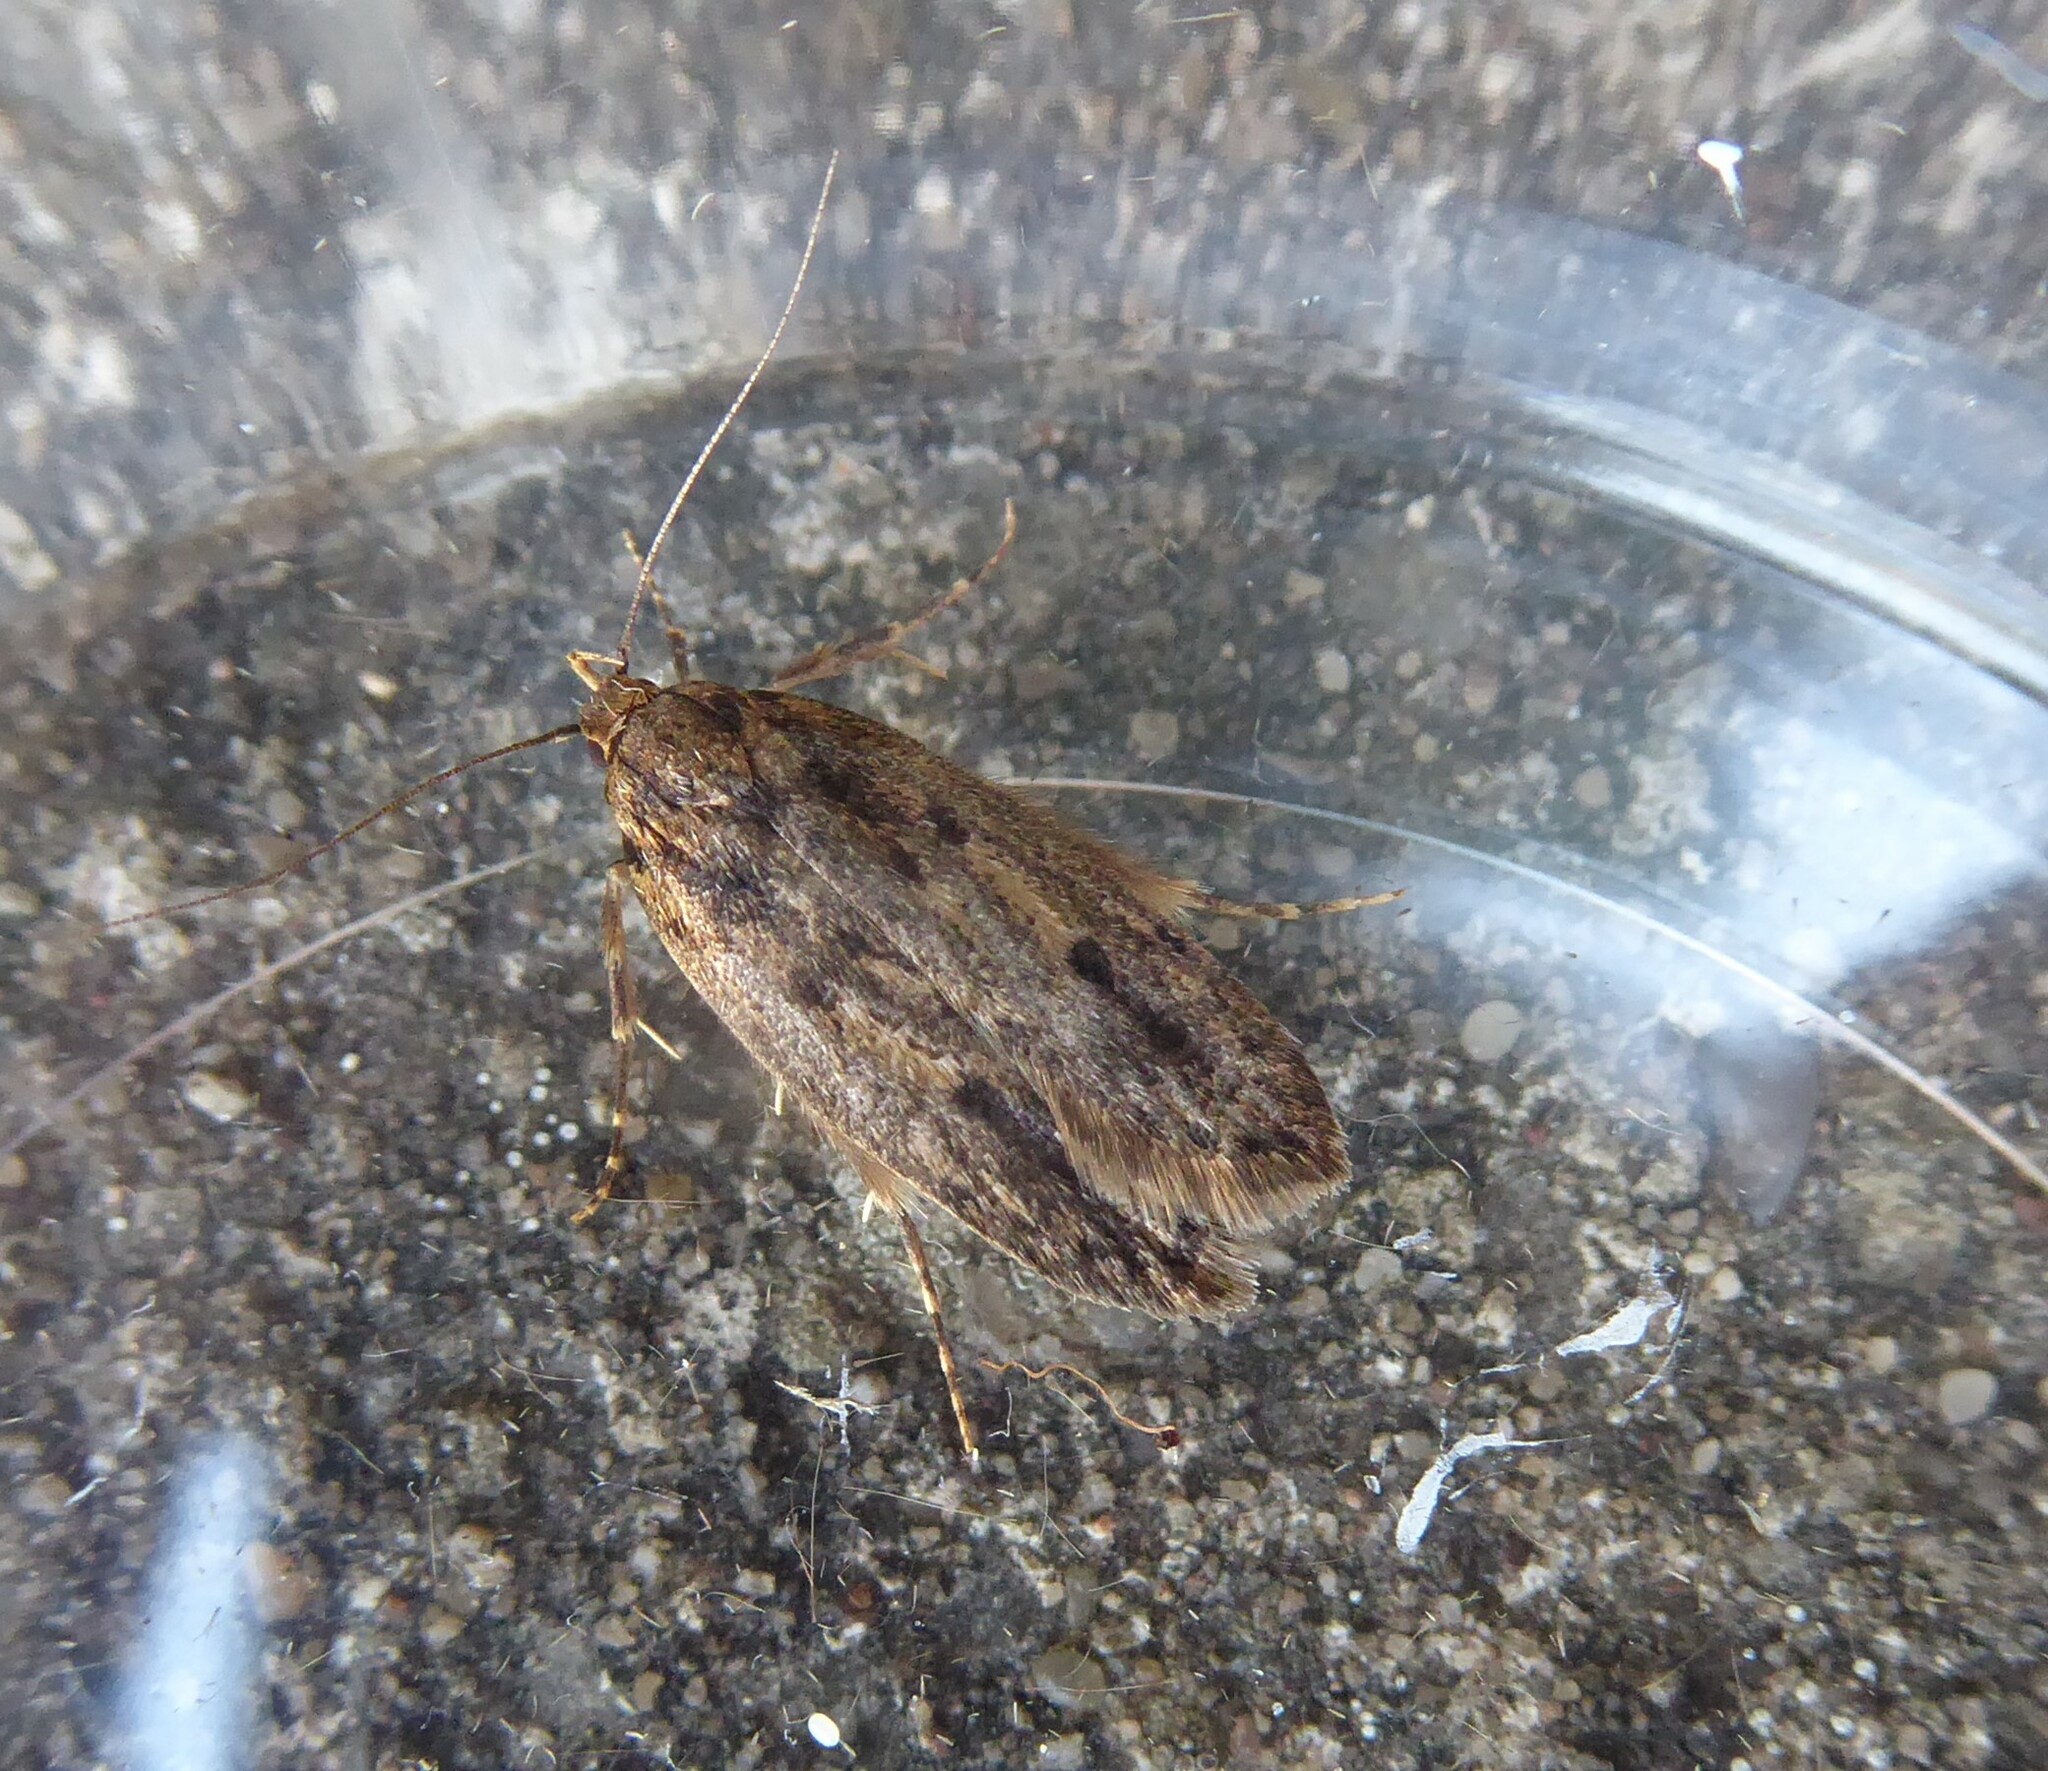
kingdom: Animalia
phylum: Arthropoda
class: Insecta
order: Lepidoptera
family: Oecophoridae
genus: Hofmannophila
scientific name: Hofmannophila pseudospretella
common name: Brown house moth
